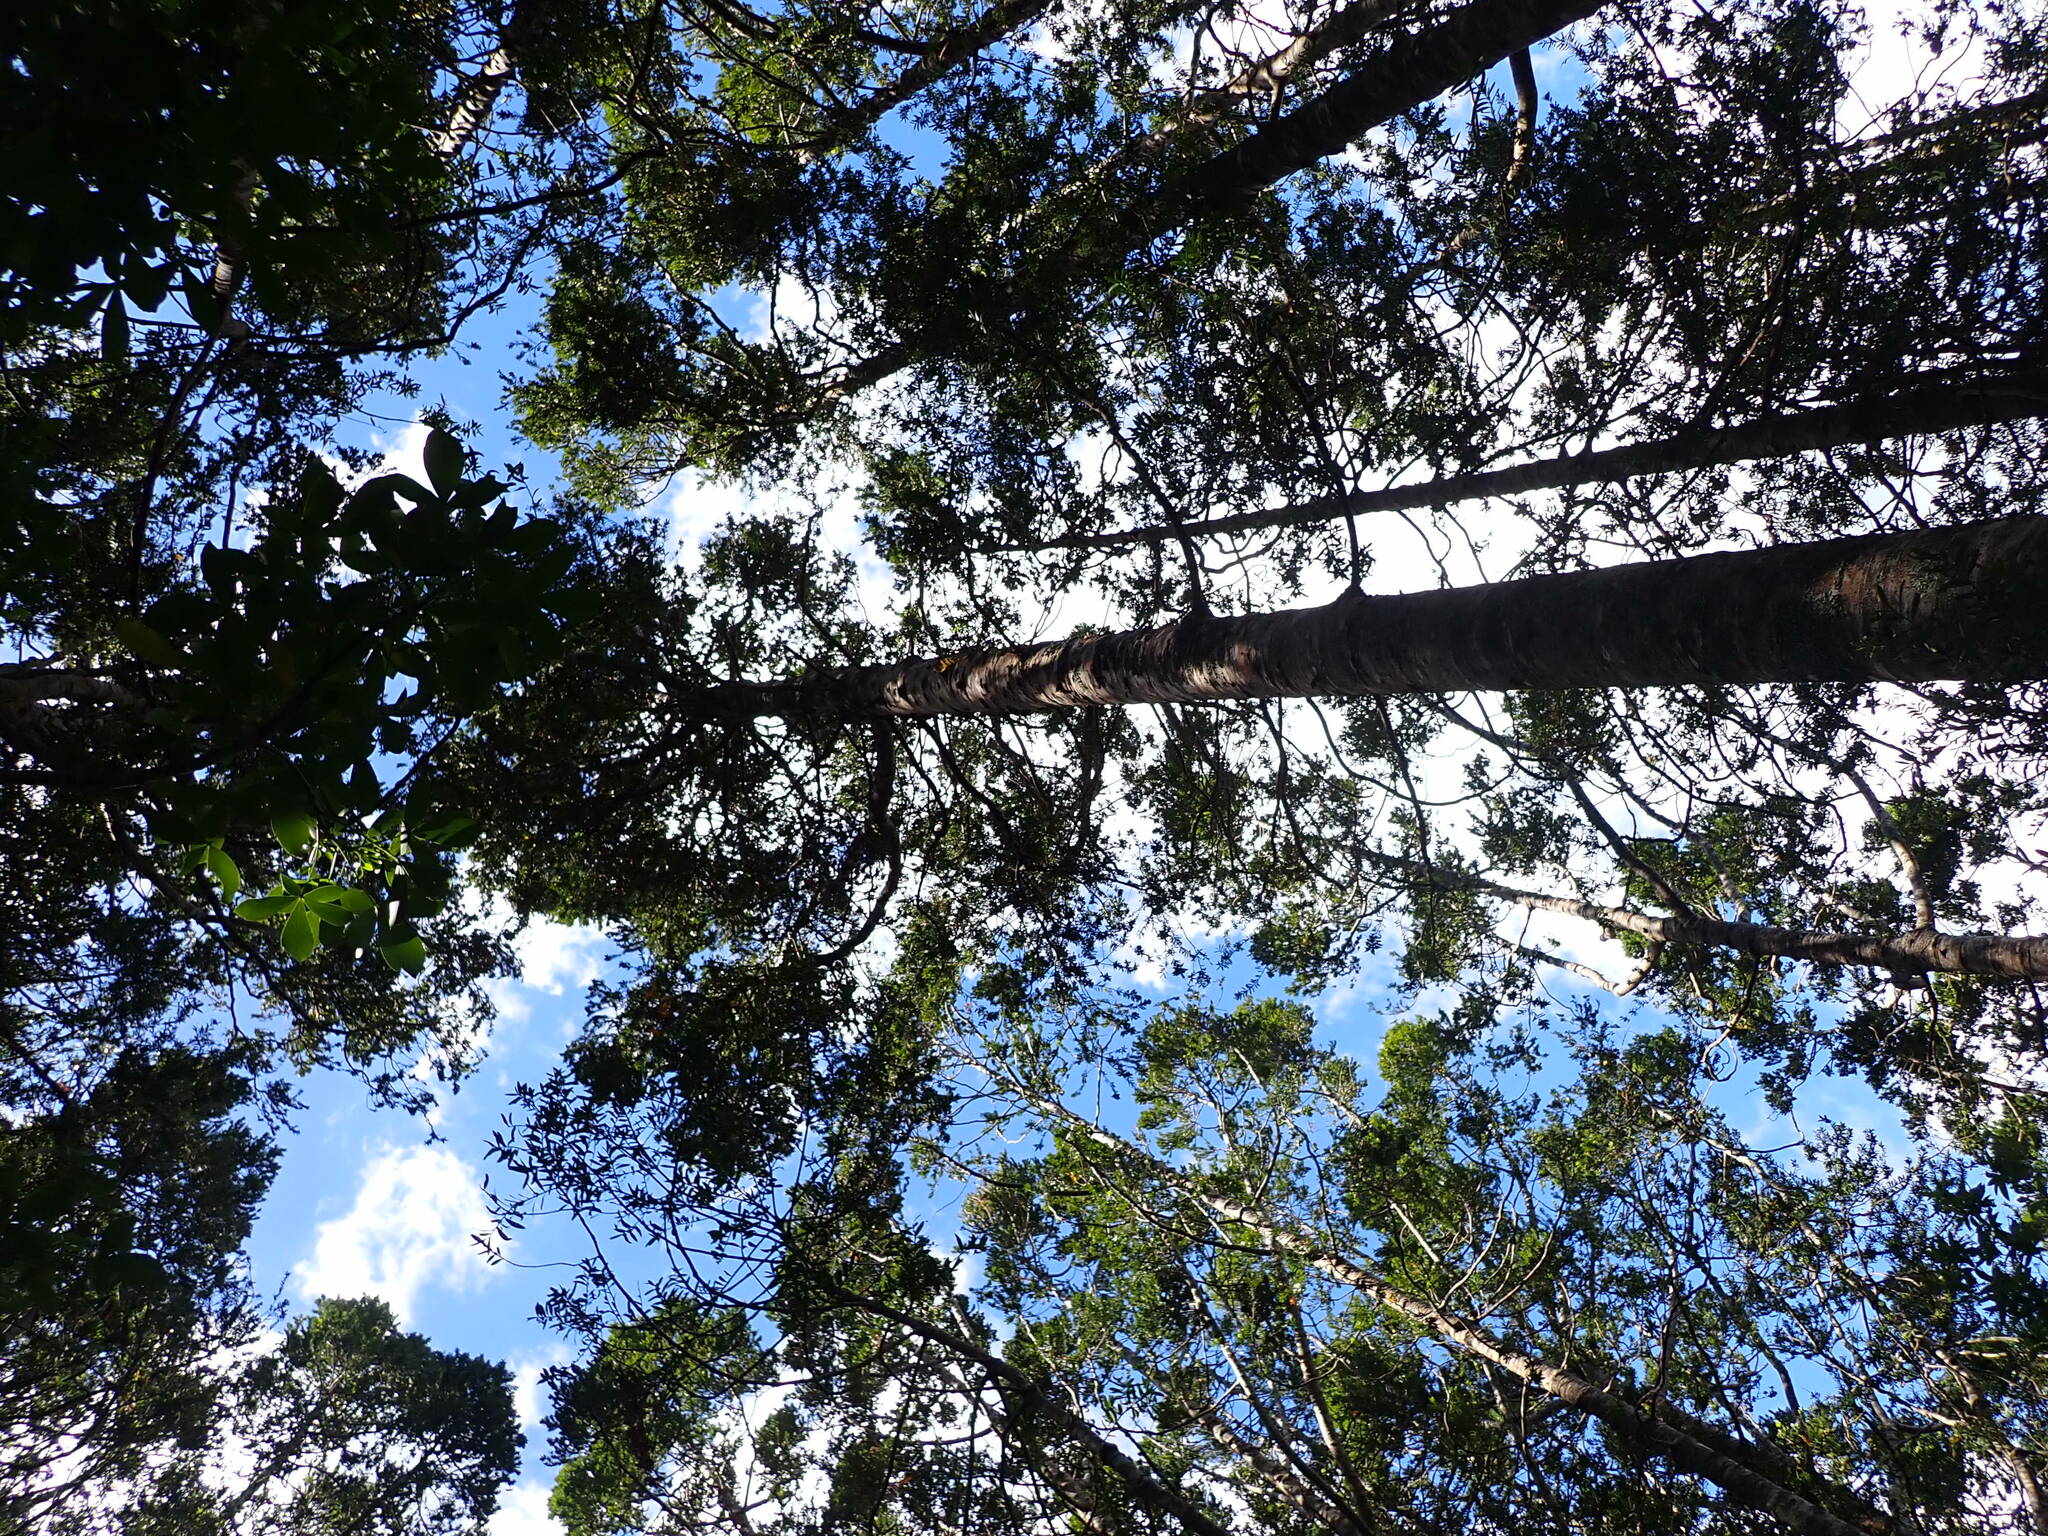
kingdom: Plantae
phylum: Tracheophyta
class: Pinopsida
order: Pinales
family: Araucariaceae
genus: Agathis
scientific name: Agathis australis
